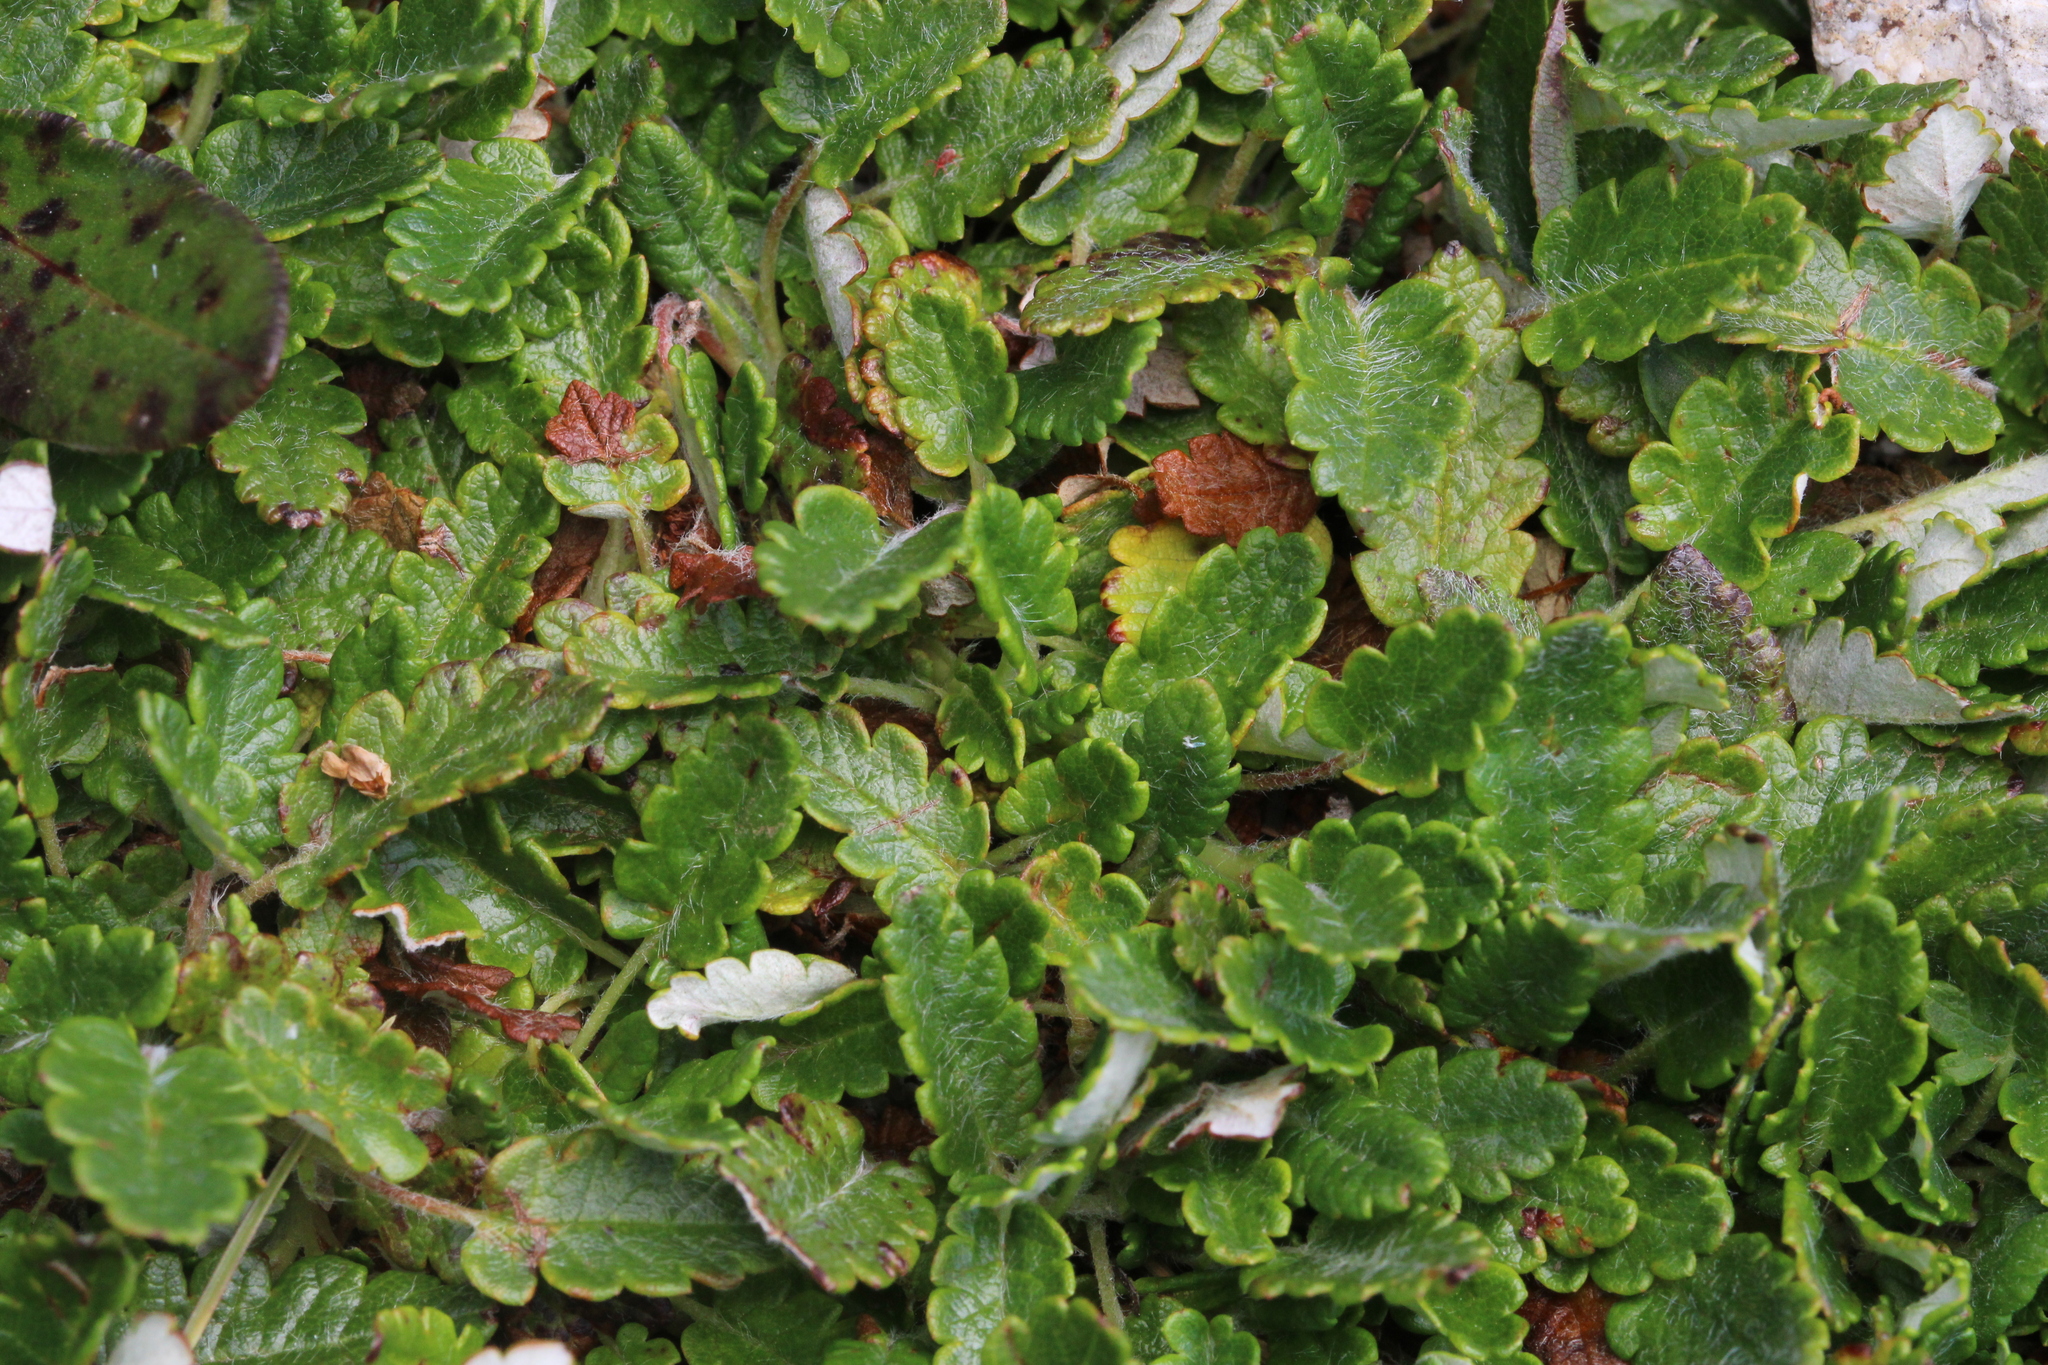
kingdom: Plantae
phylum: Tracheophyta
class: Magnoliopsida
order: Rosales
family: Rosaceae
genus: Dryas
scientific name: Dryas octopetala
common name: Eight-petal mountain-avens
